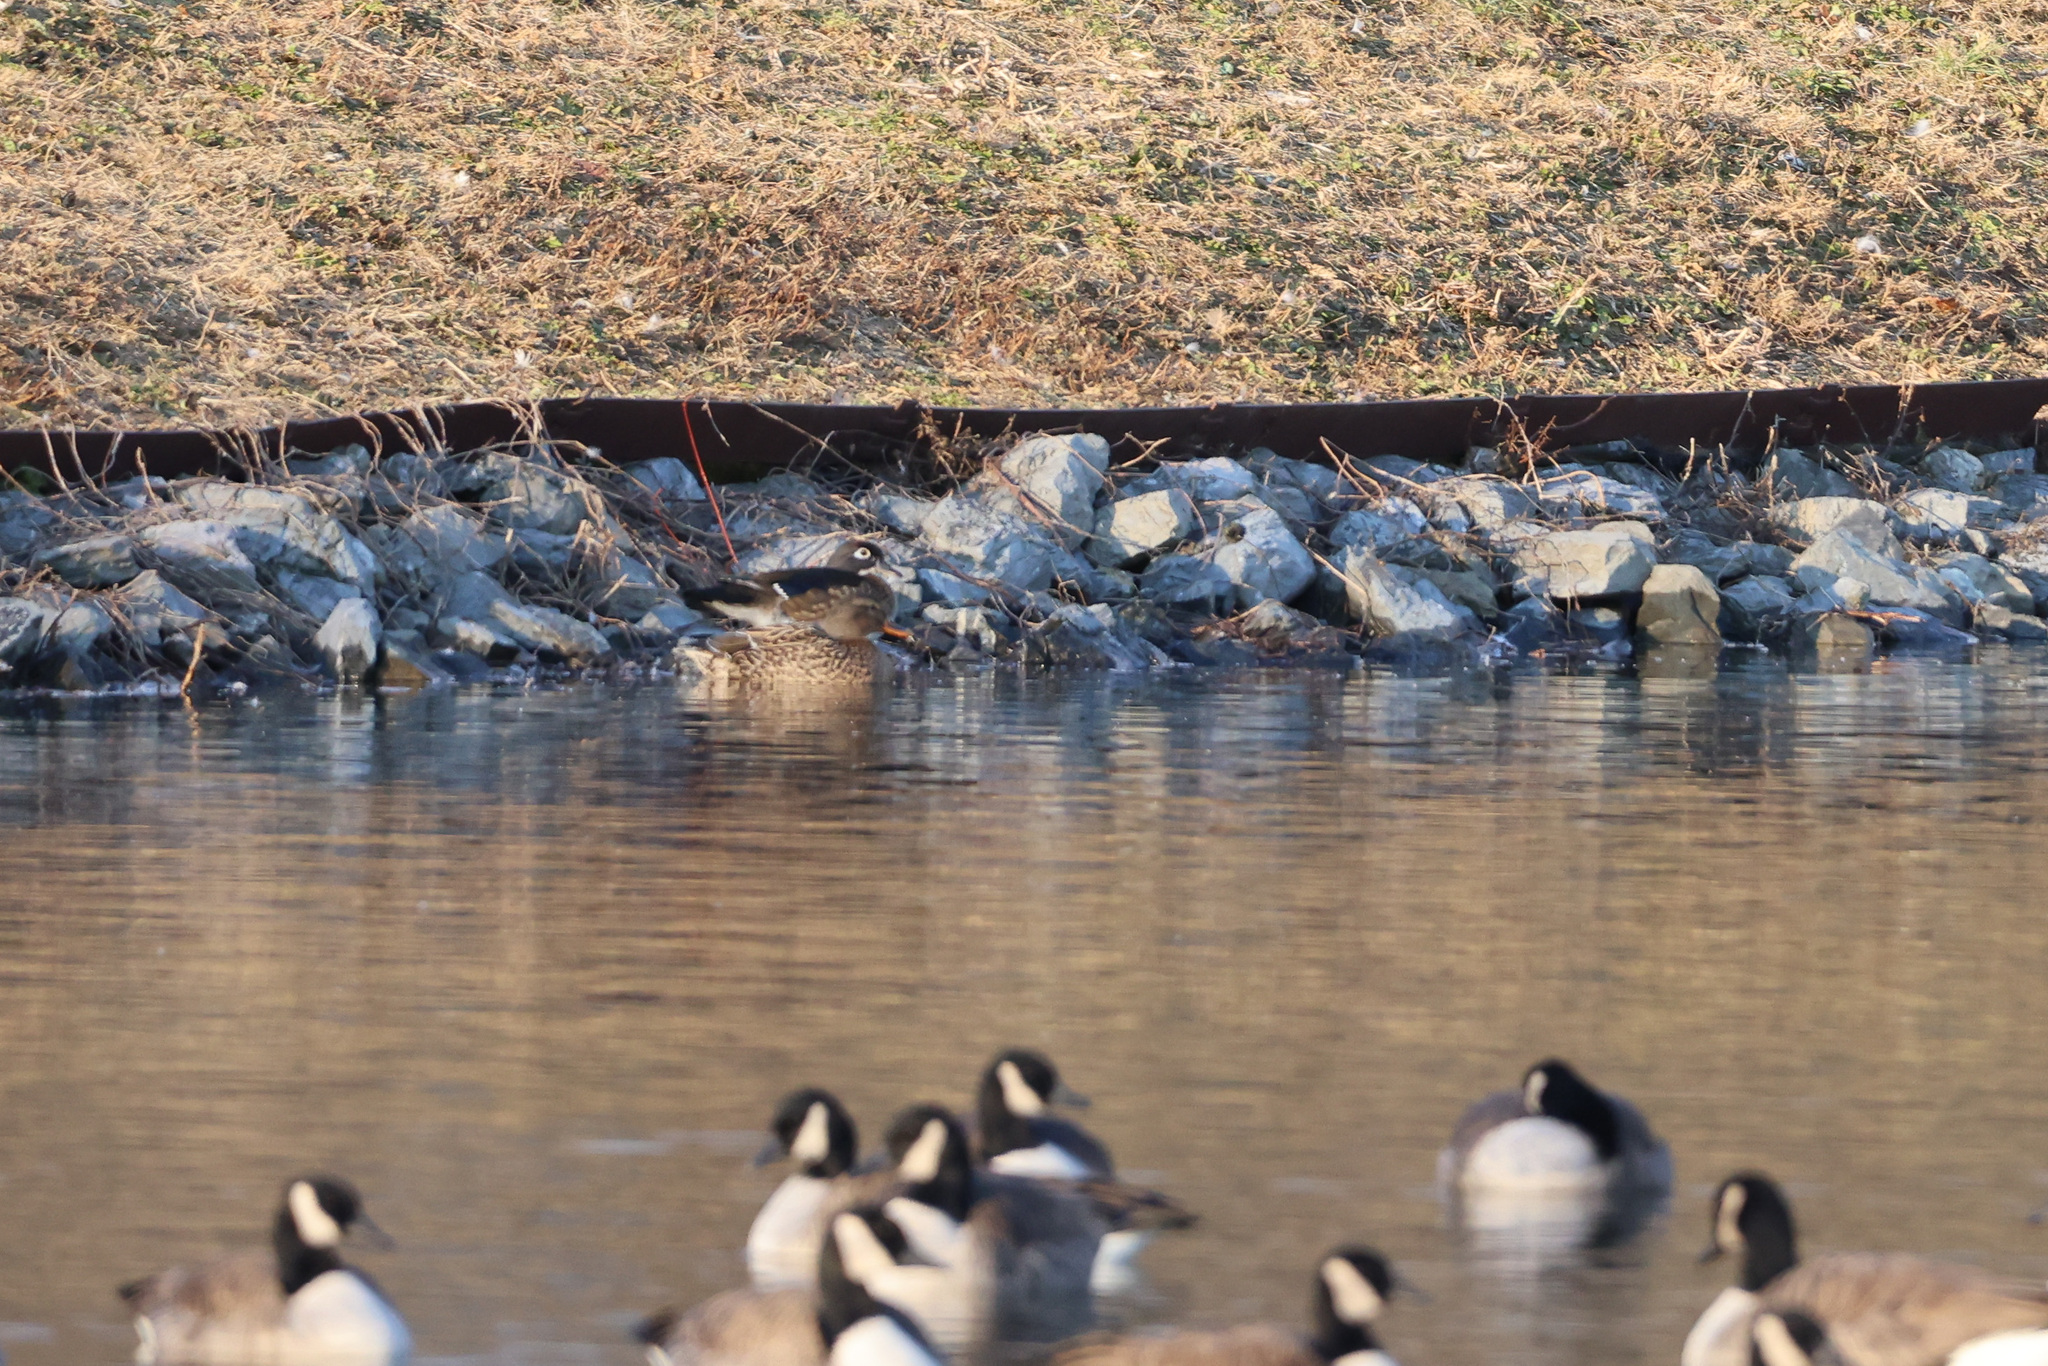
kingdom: Animalia
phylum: Chordata
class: Aves
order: Anseriformes
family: Anatidae
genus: Anas
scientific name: Anas platyrhynchos
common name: Mallard
